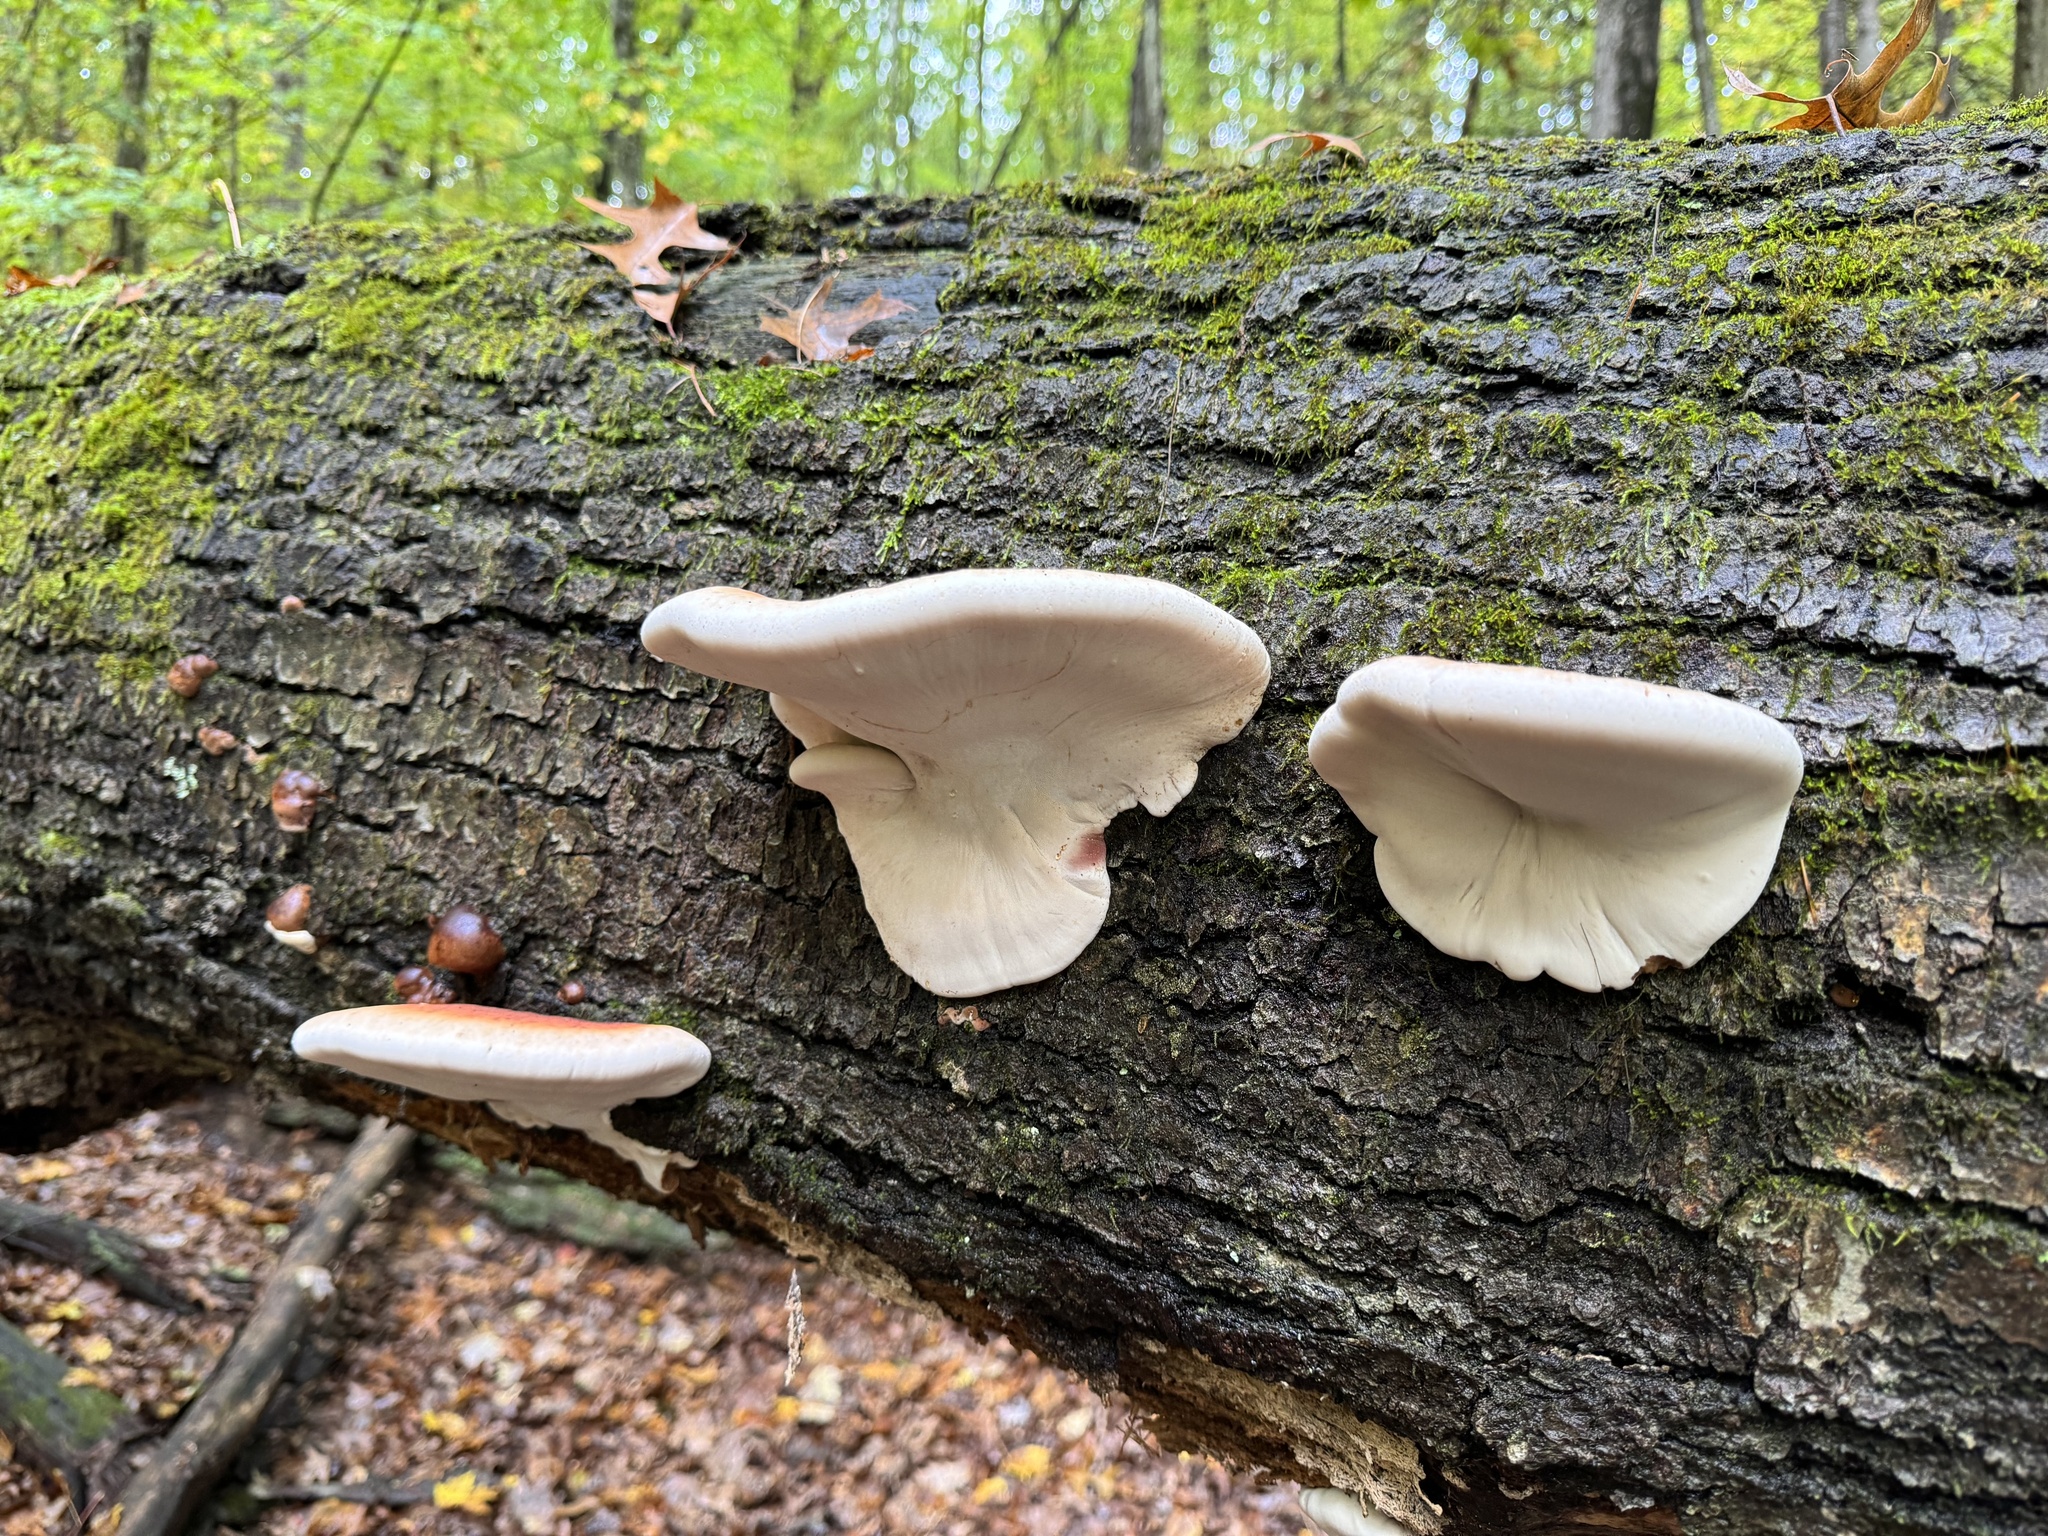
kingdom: Fungi
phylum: Basidiomycota
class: Agaricomycetes
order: Polyporales
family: Ischnodermataceae
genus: Ischnoderma
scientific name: Ischnoderma resinosum
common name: Resinous polypore
